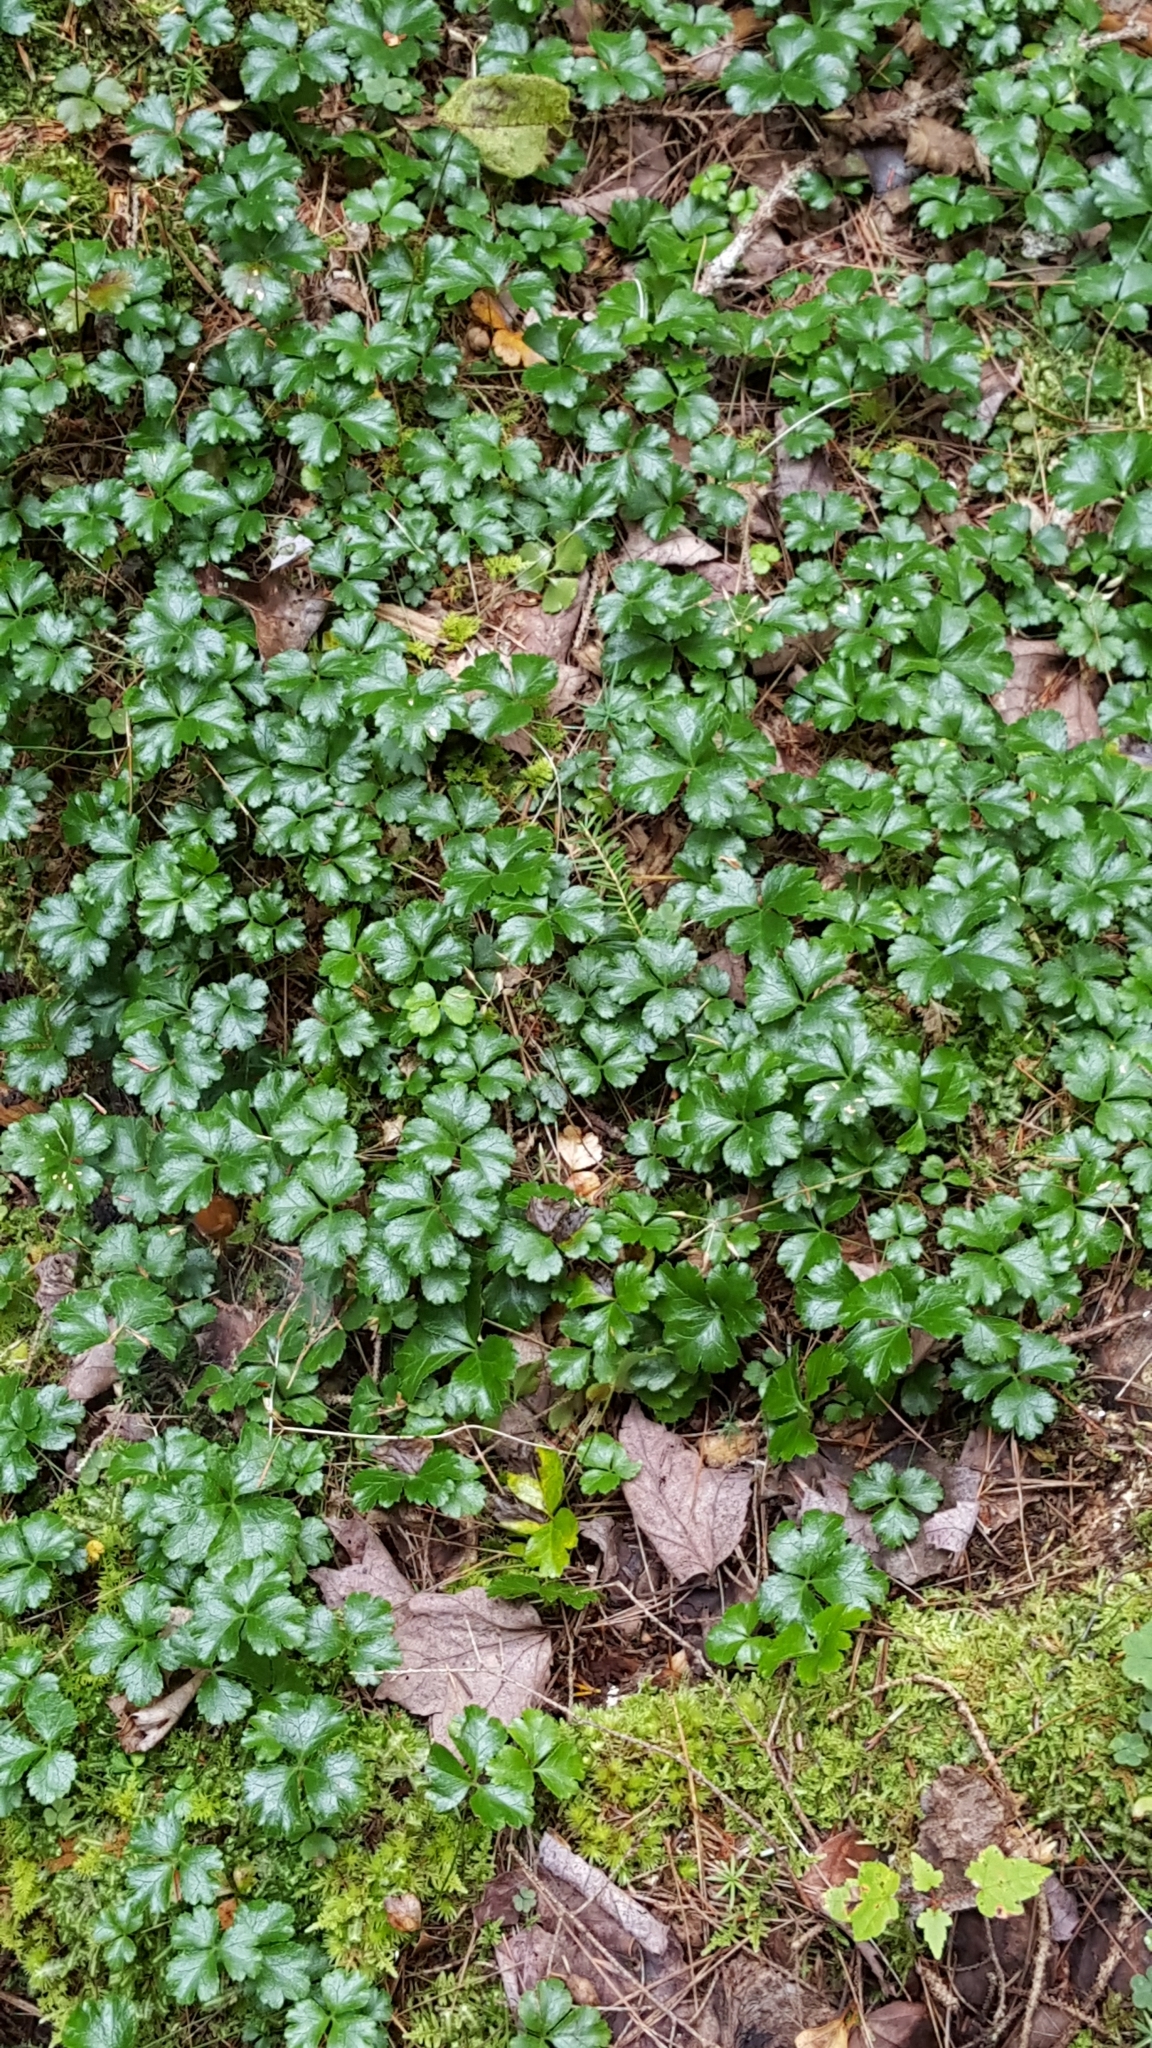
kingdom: Plantae
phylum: Tracheophyta
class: Magnoliopsida
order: Ranunculales
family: Ranunculaceae
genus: Coptis
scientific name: Coptis trifolia
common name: Canker-root
